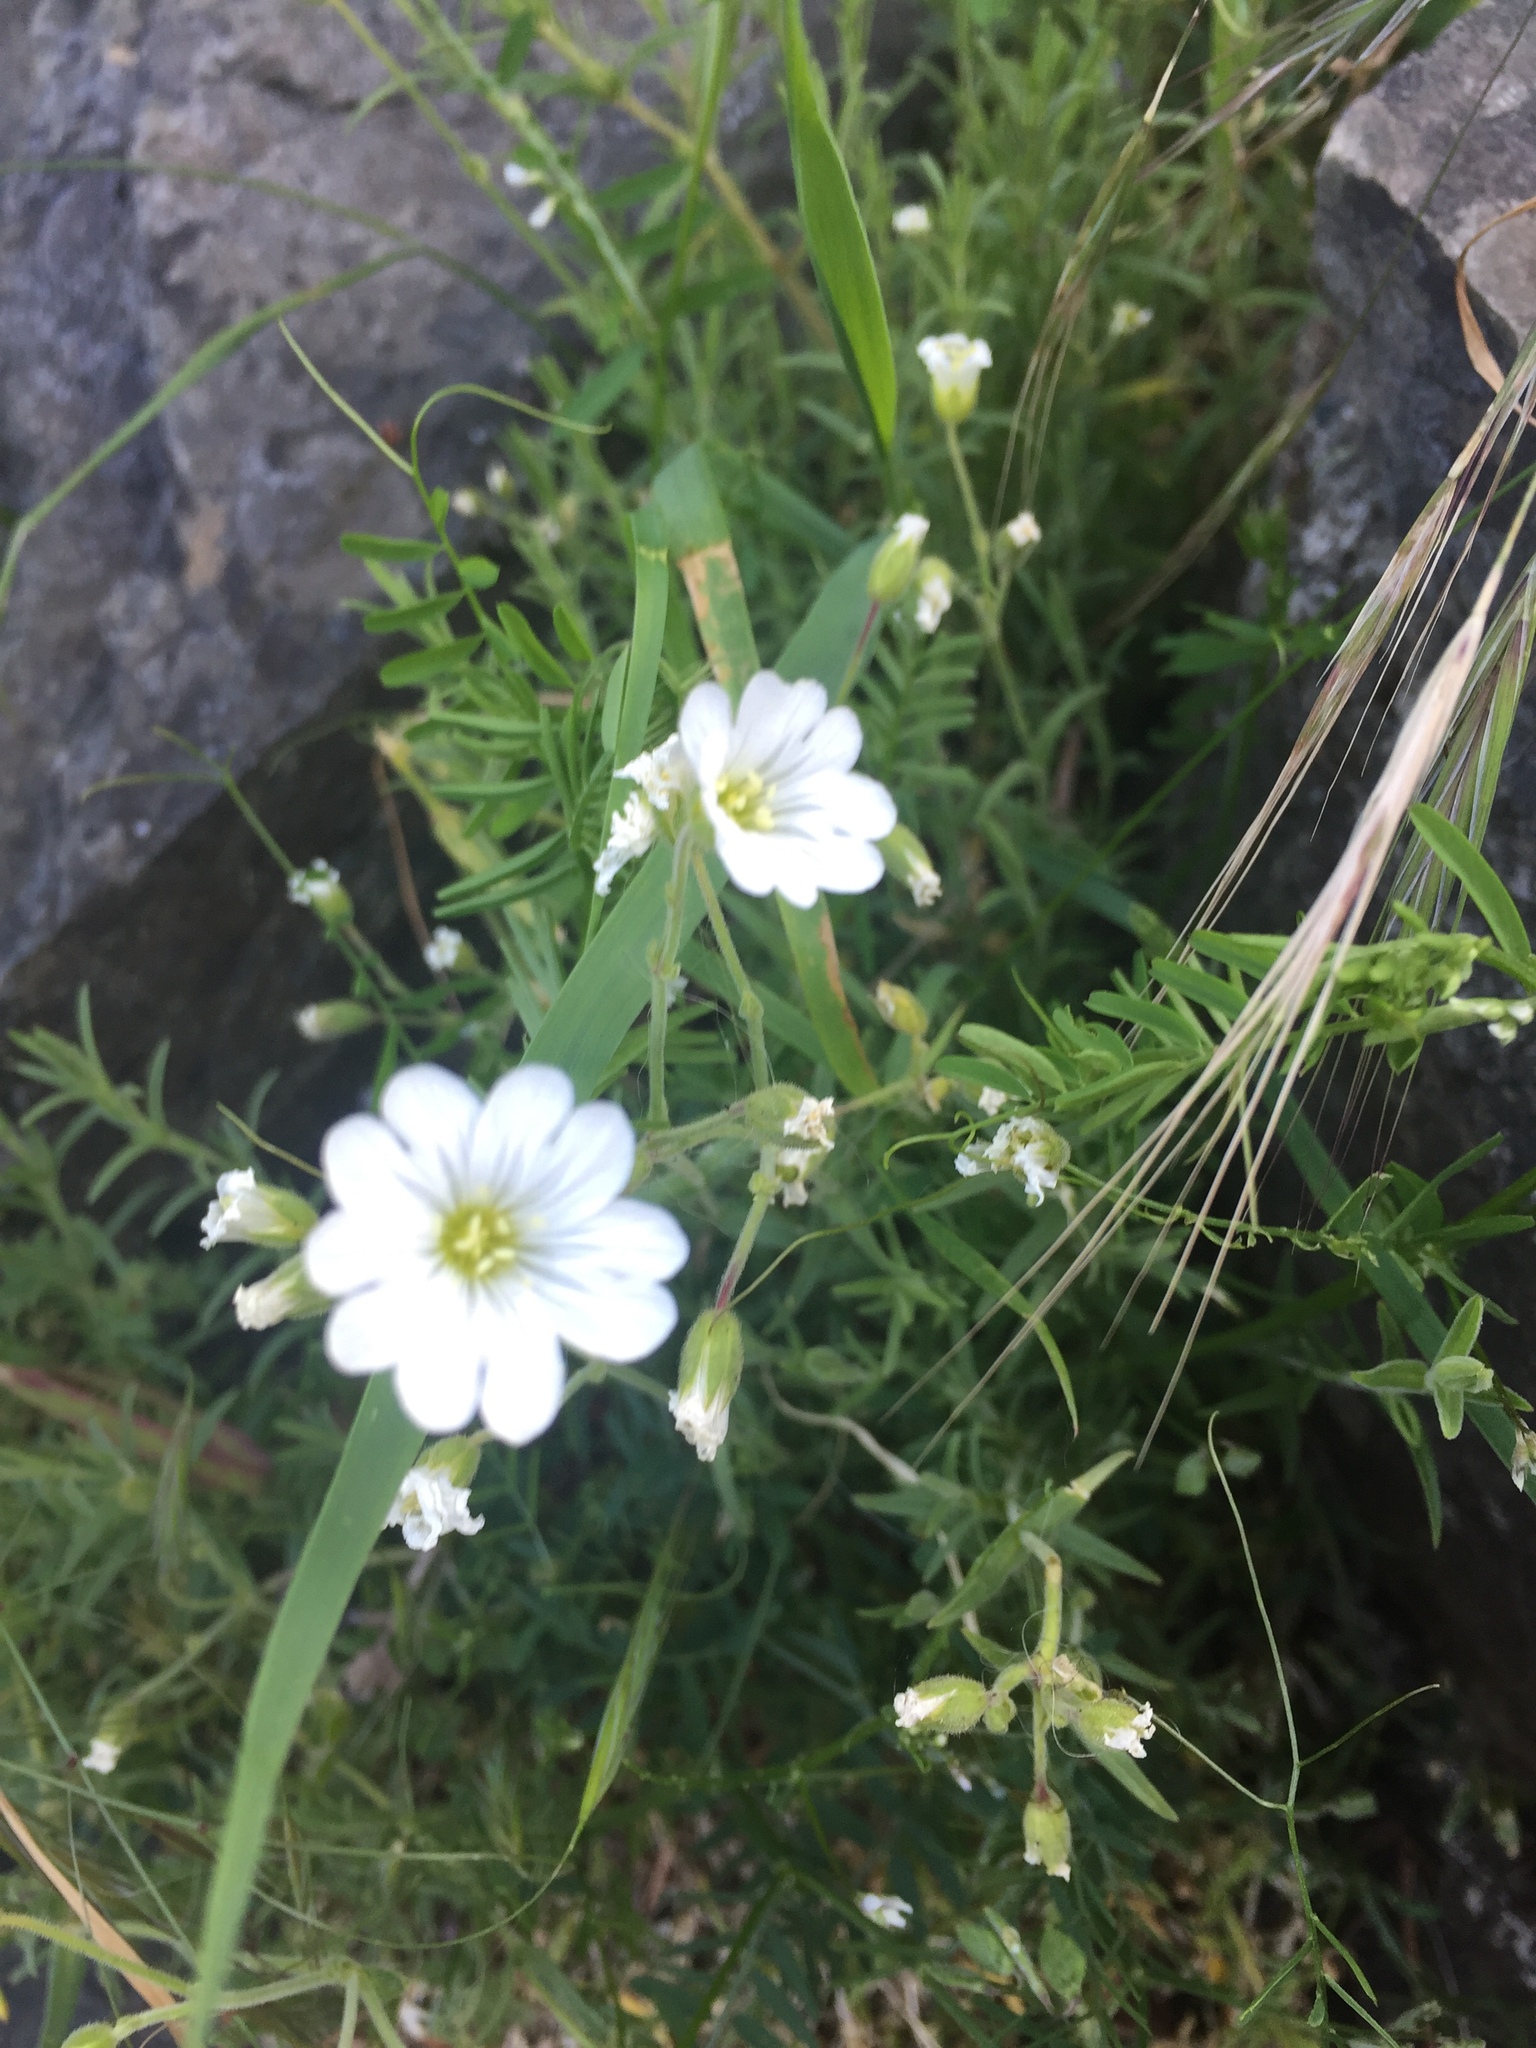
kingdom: Plantae
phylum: Tracheophyta
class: Magnoliopsida
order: Caryophyllales
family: Caryophyllaceae
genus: Cerastium
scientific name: Cerastium arvense
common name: Field mouse-ear
